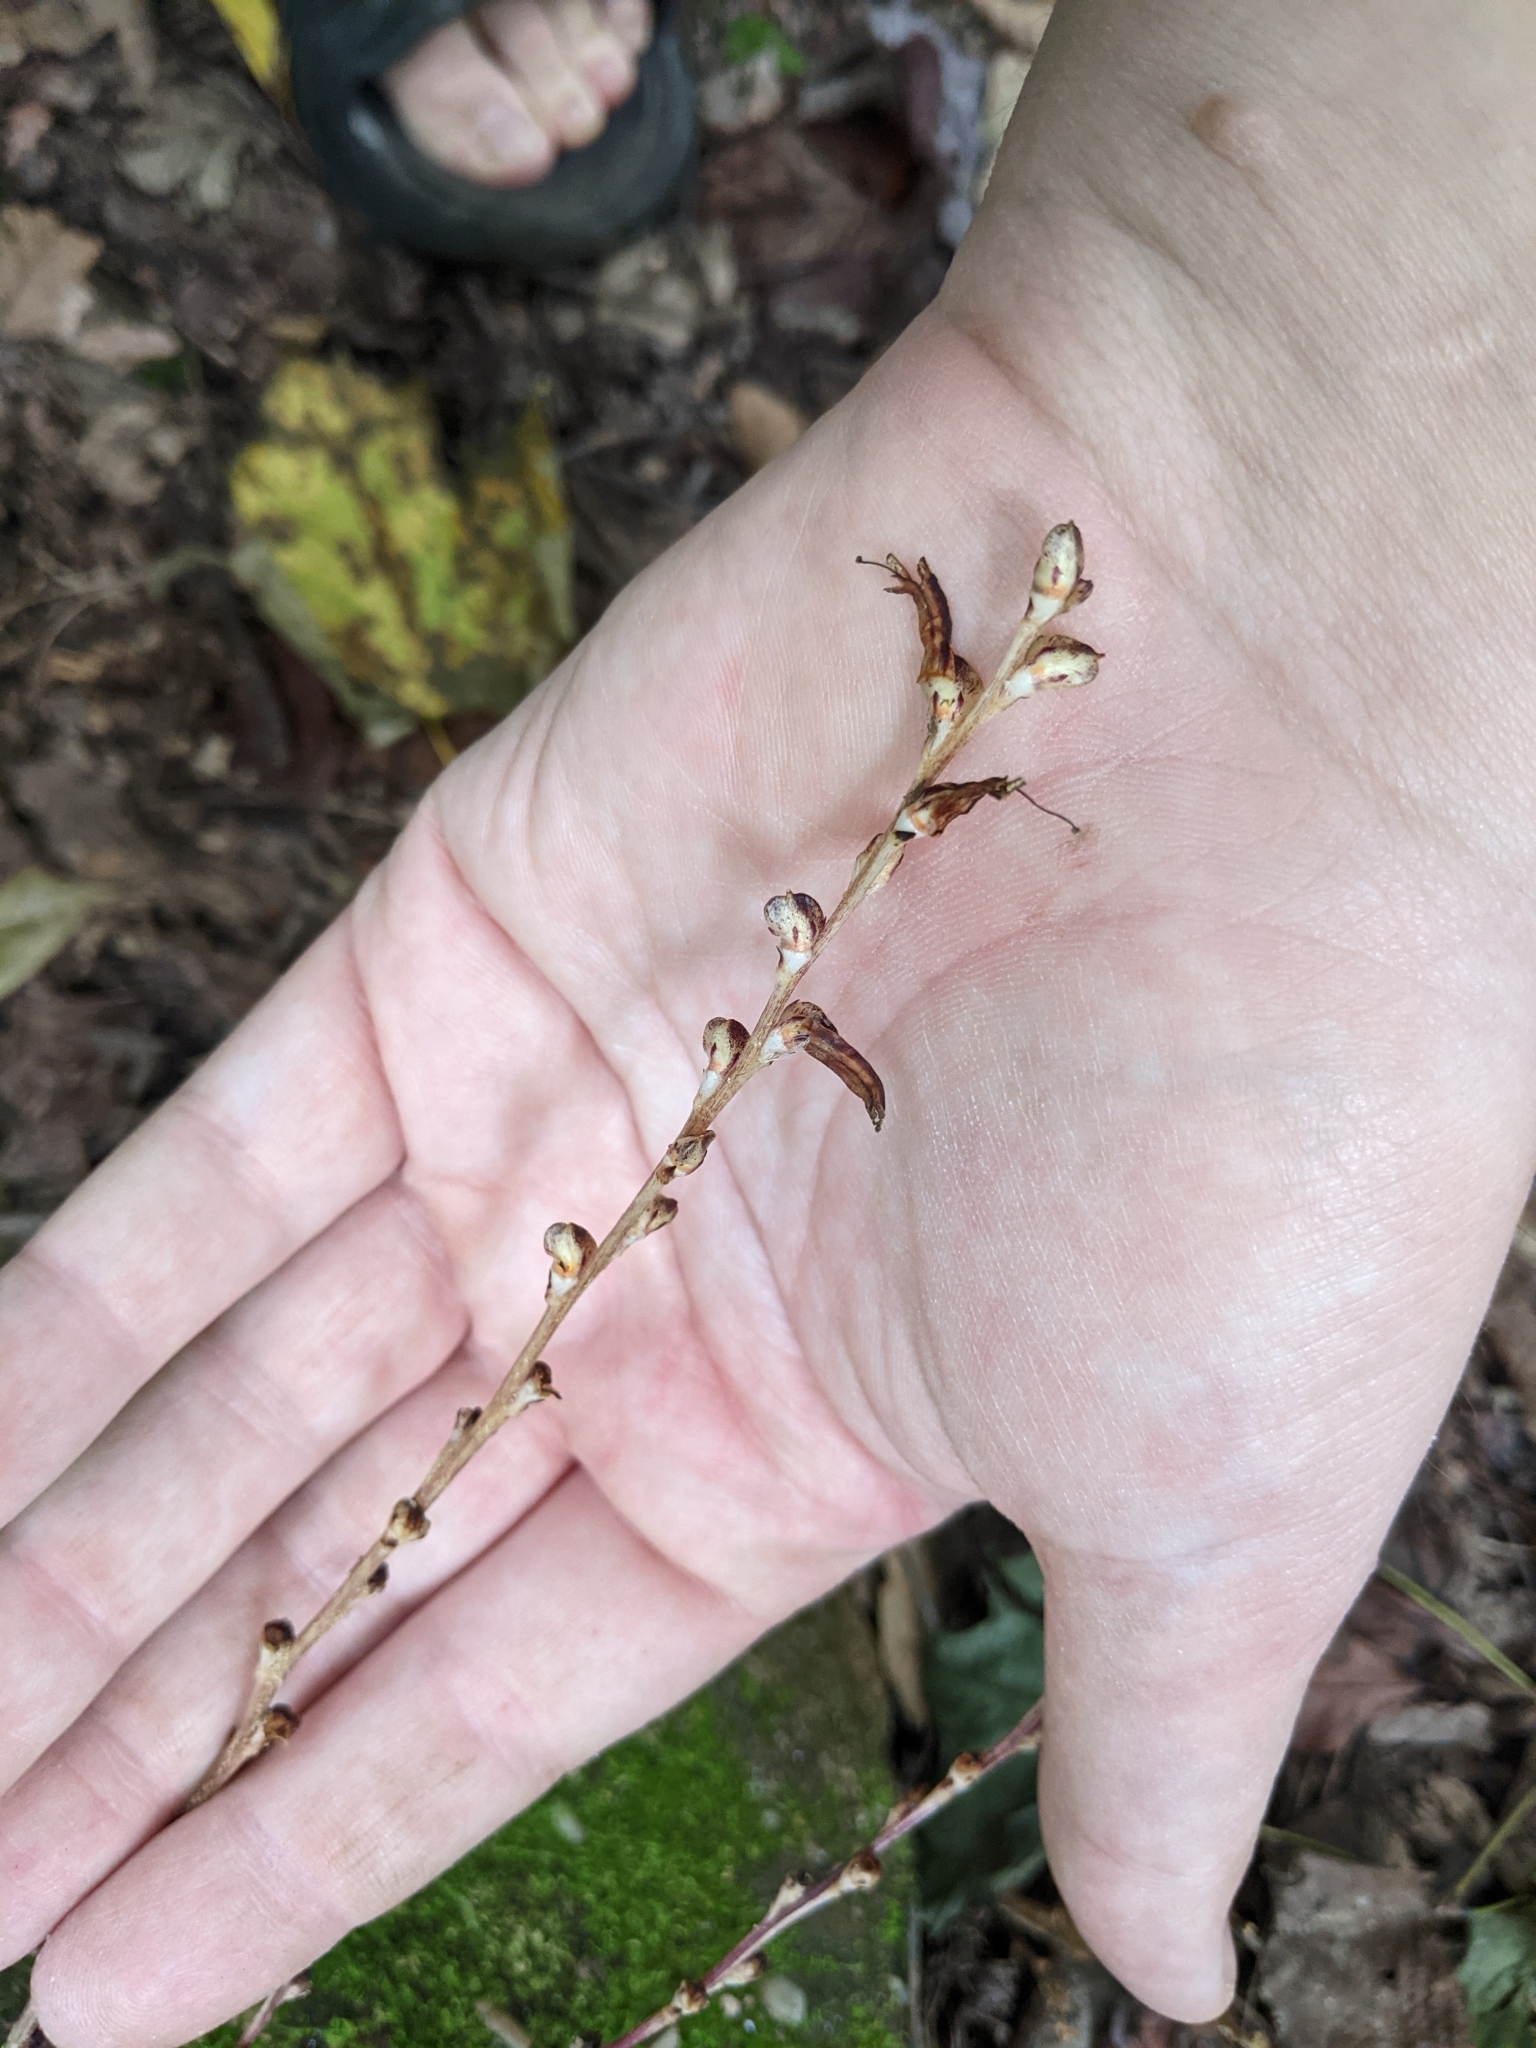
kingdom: Plantae
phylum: Tracheophyta
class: Magnoliopsida
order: Lamiales
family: Orobanchaceae
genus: Epifagus
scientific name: Epifagus virginiana
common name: Beechdrops
